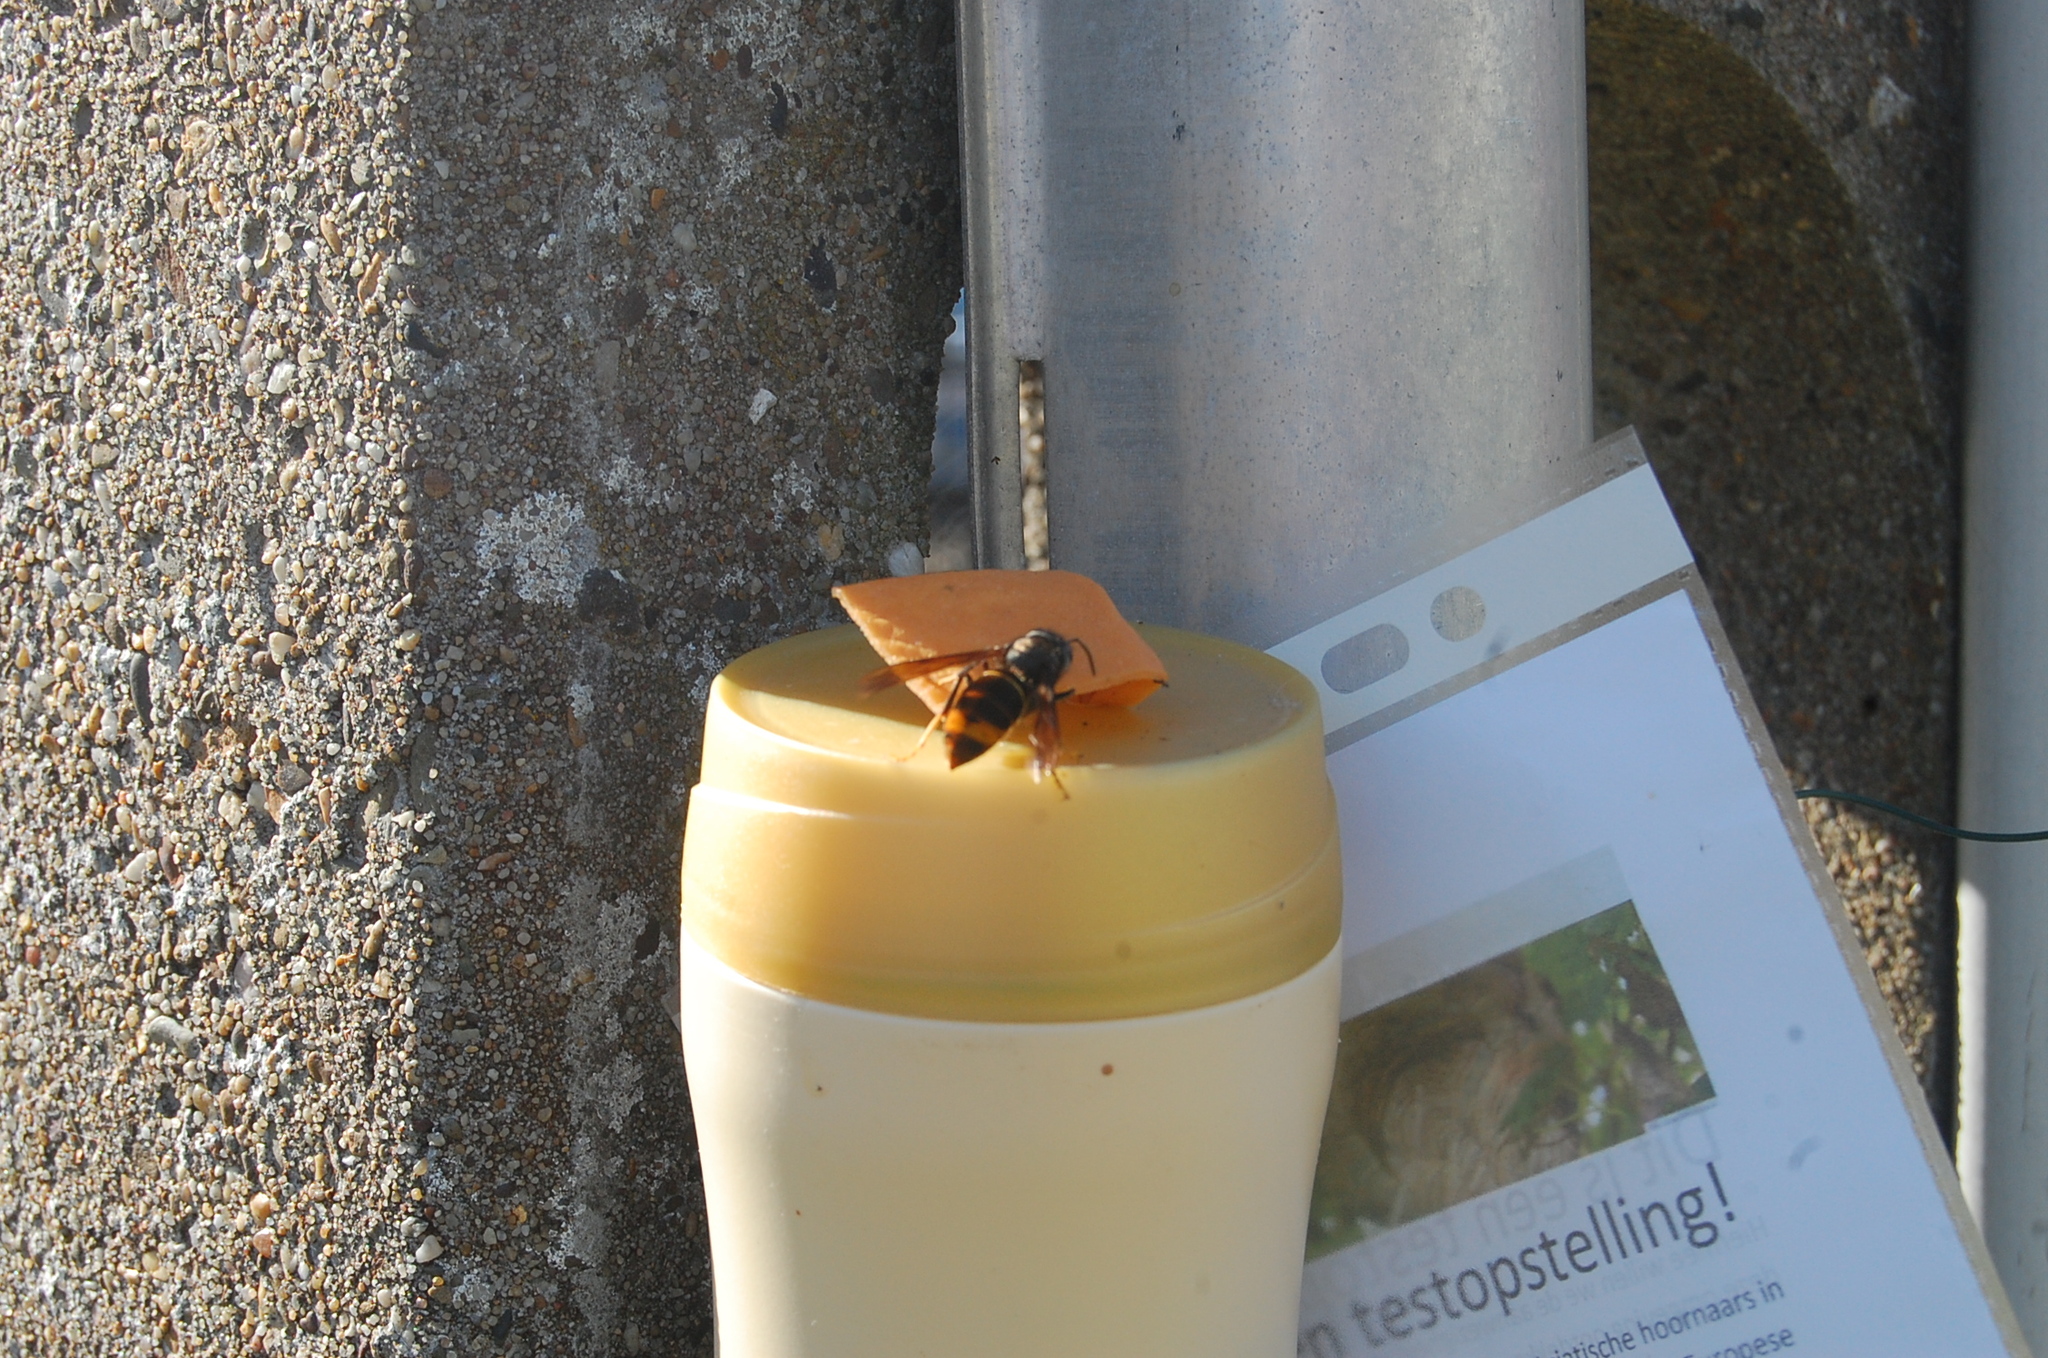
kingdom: Animalia
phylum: Arthropoda
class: Insecta
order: Hymenoptera
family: Vespidae
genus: Vespa
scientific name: Vespa velutina
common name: Asian hornet
